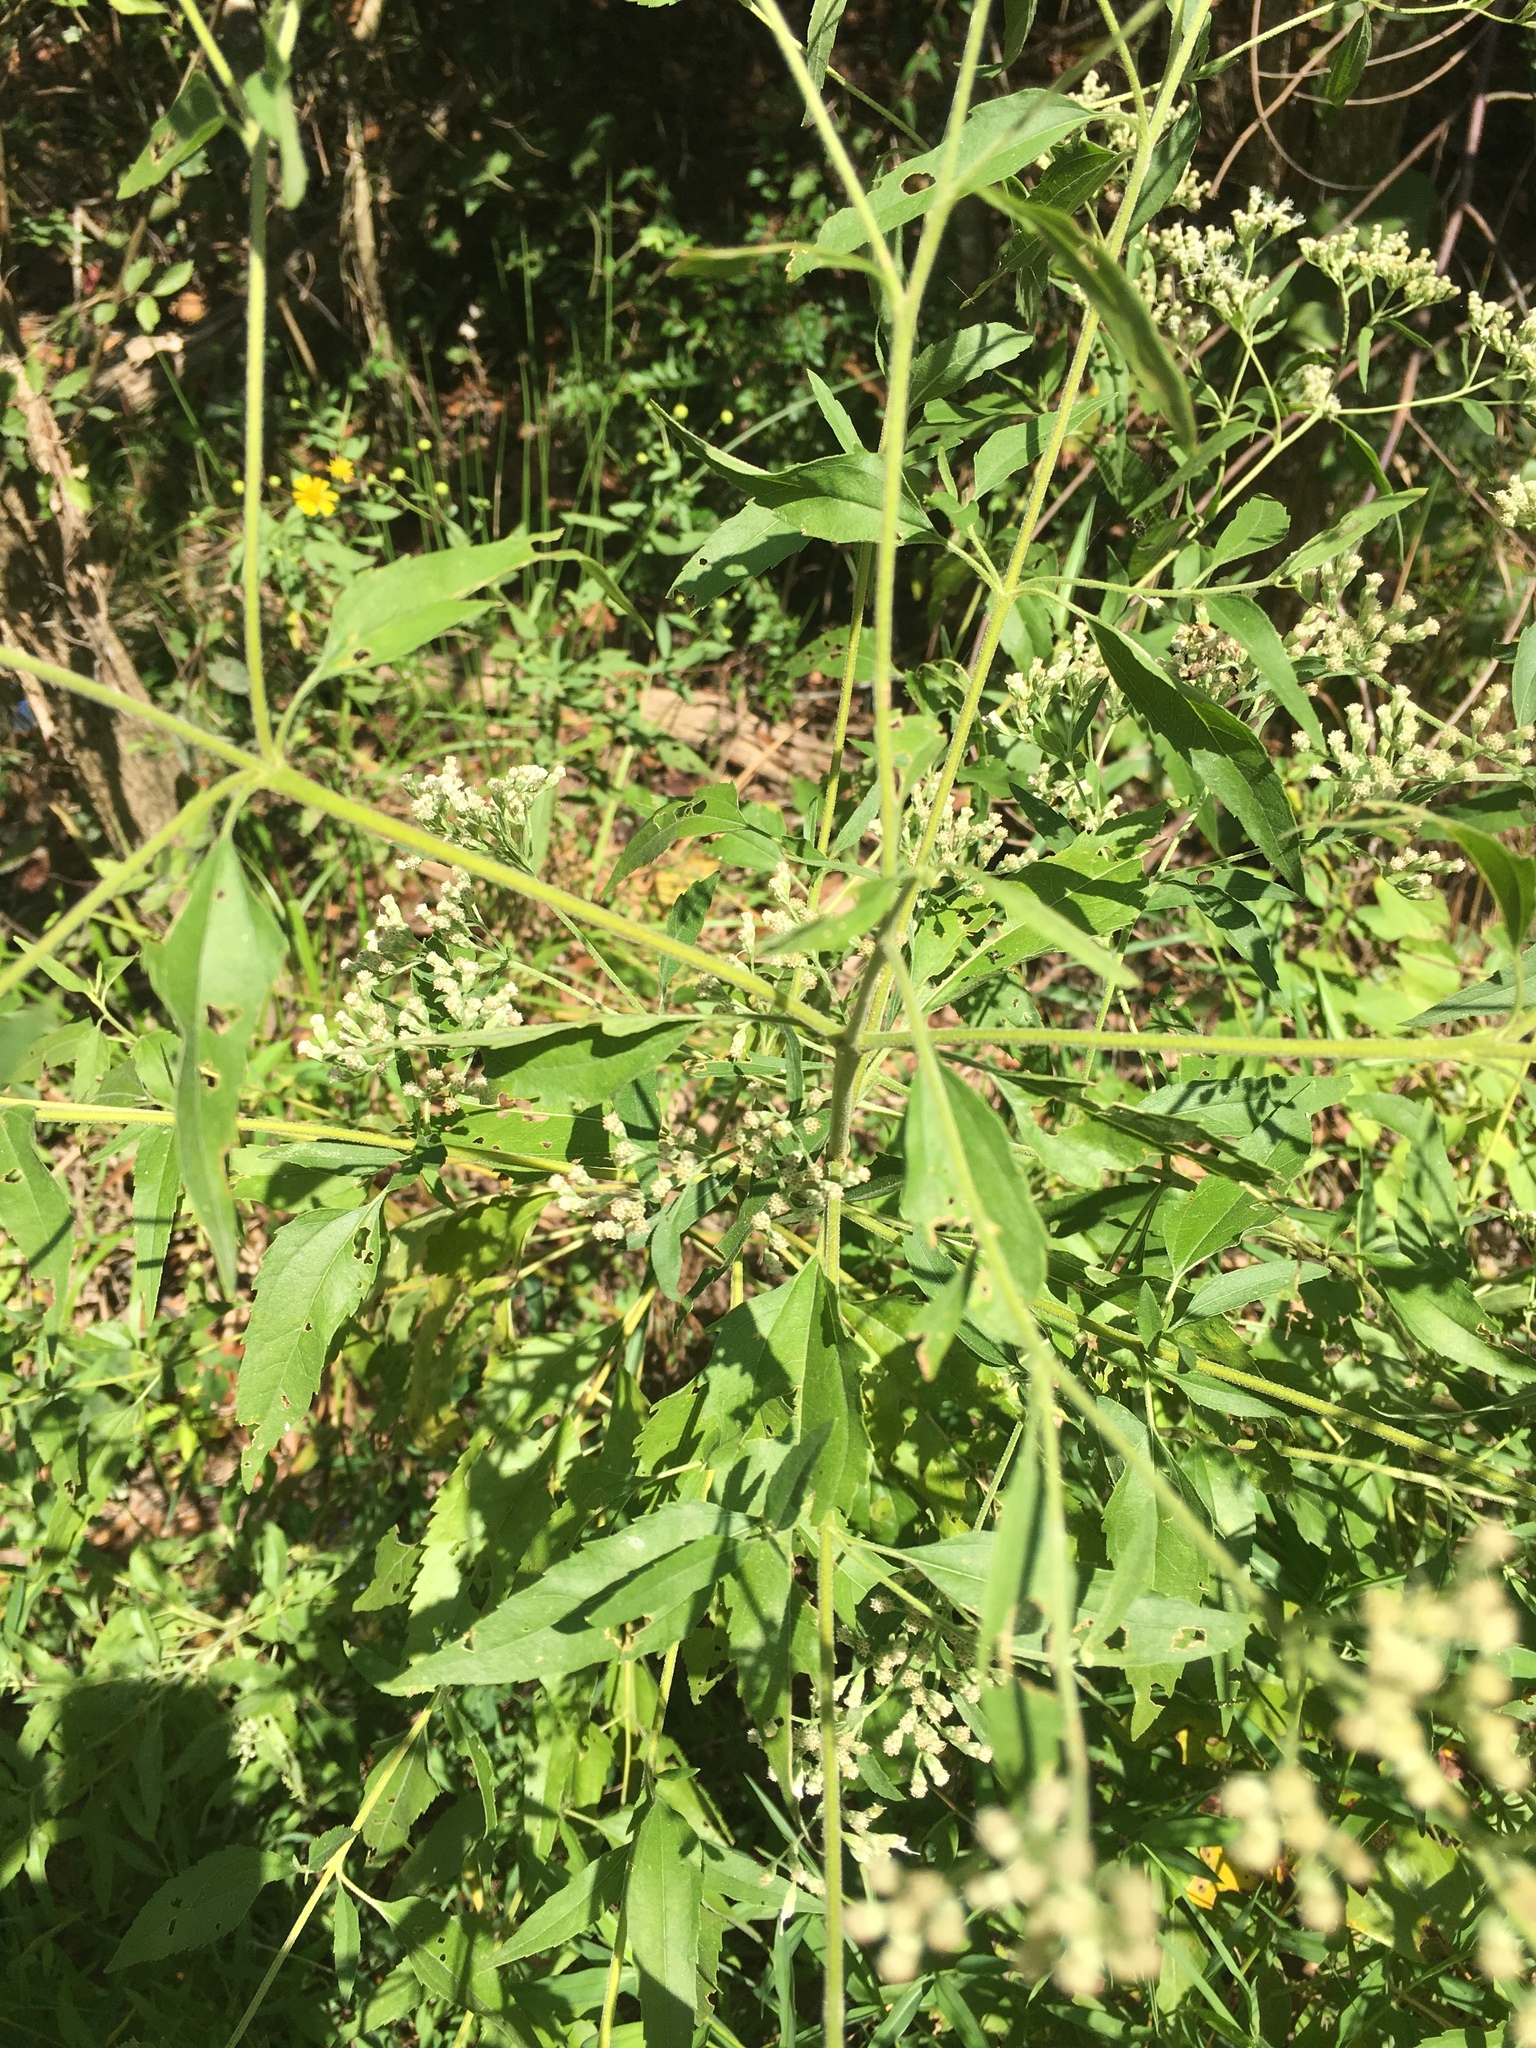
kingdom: Plantae
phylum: Tracheophyta
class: Magnoliopsida
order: Asterales
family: Asteraceae
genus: Eupatorium
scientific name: Eupatorium serotinum
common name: Late boneset
